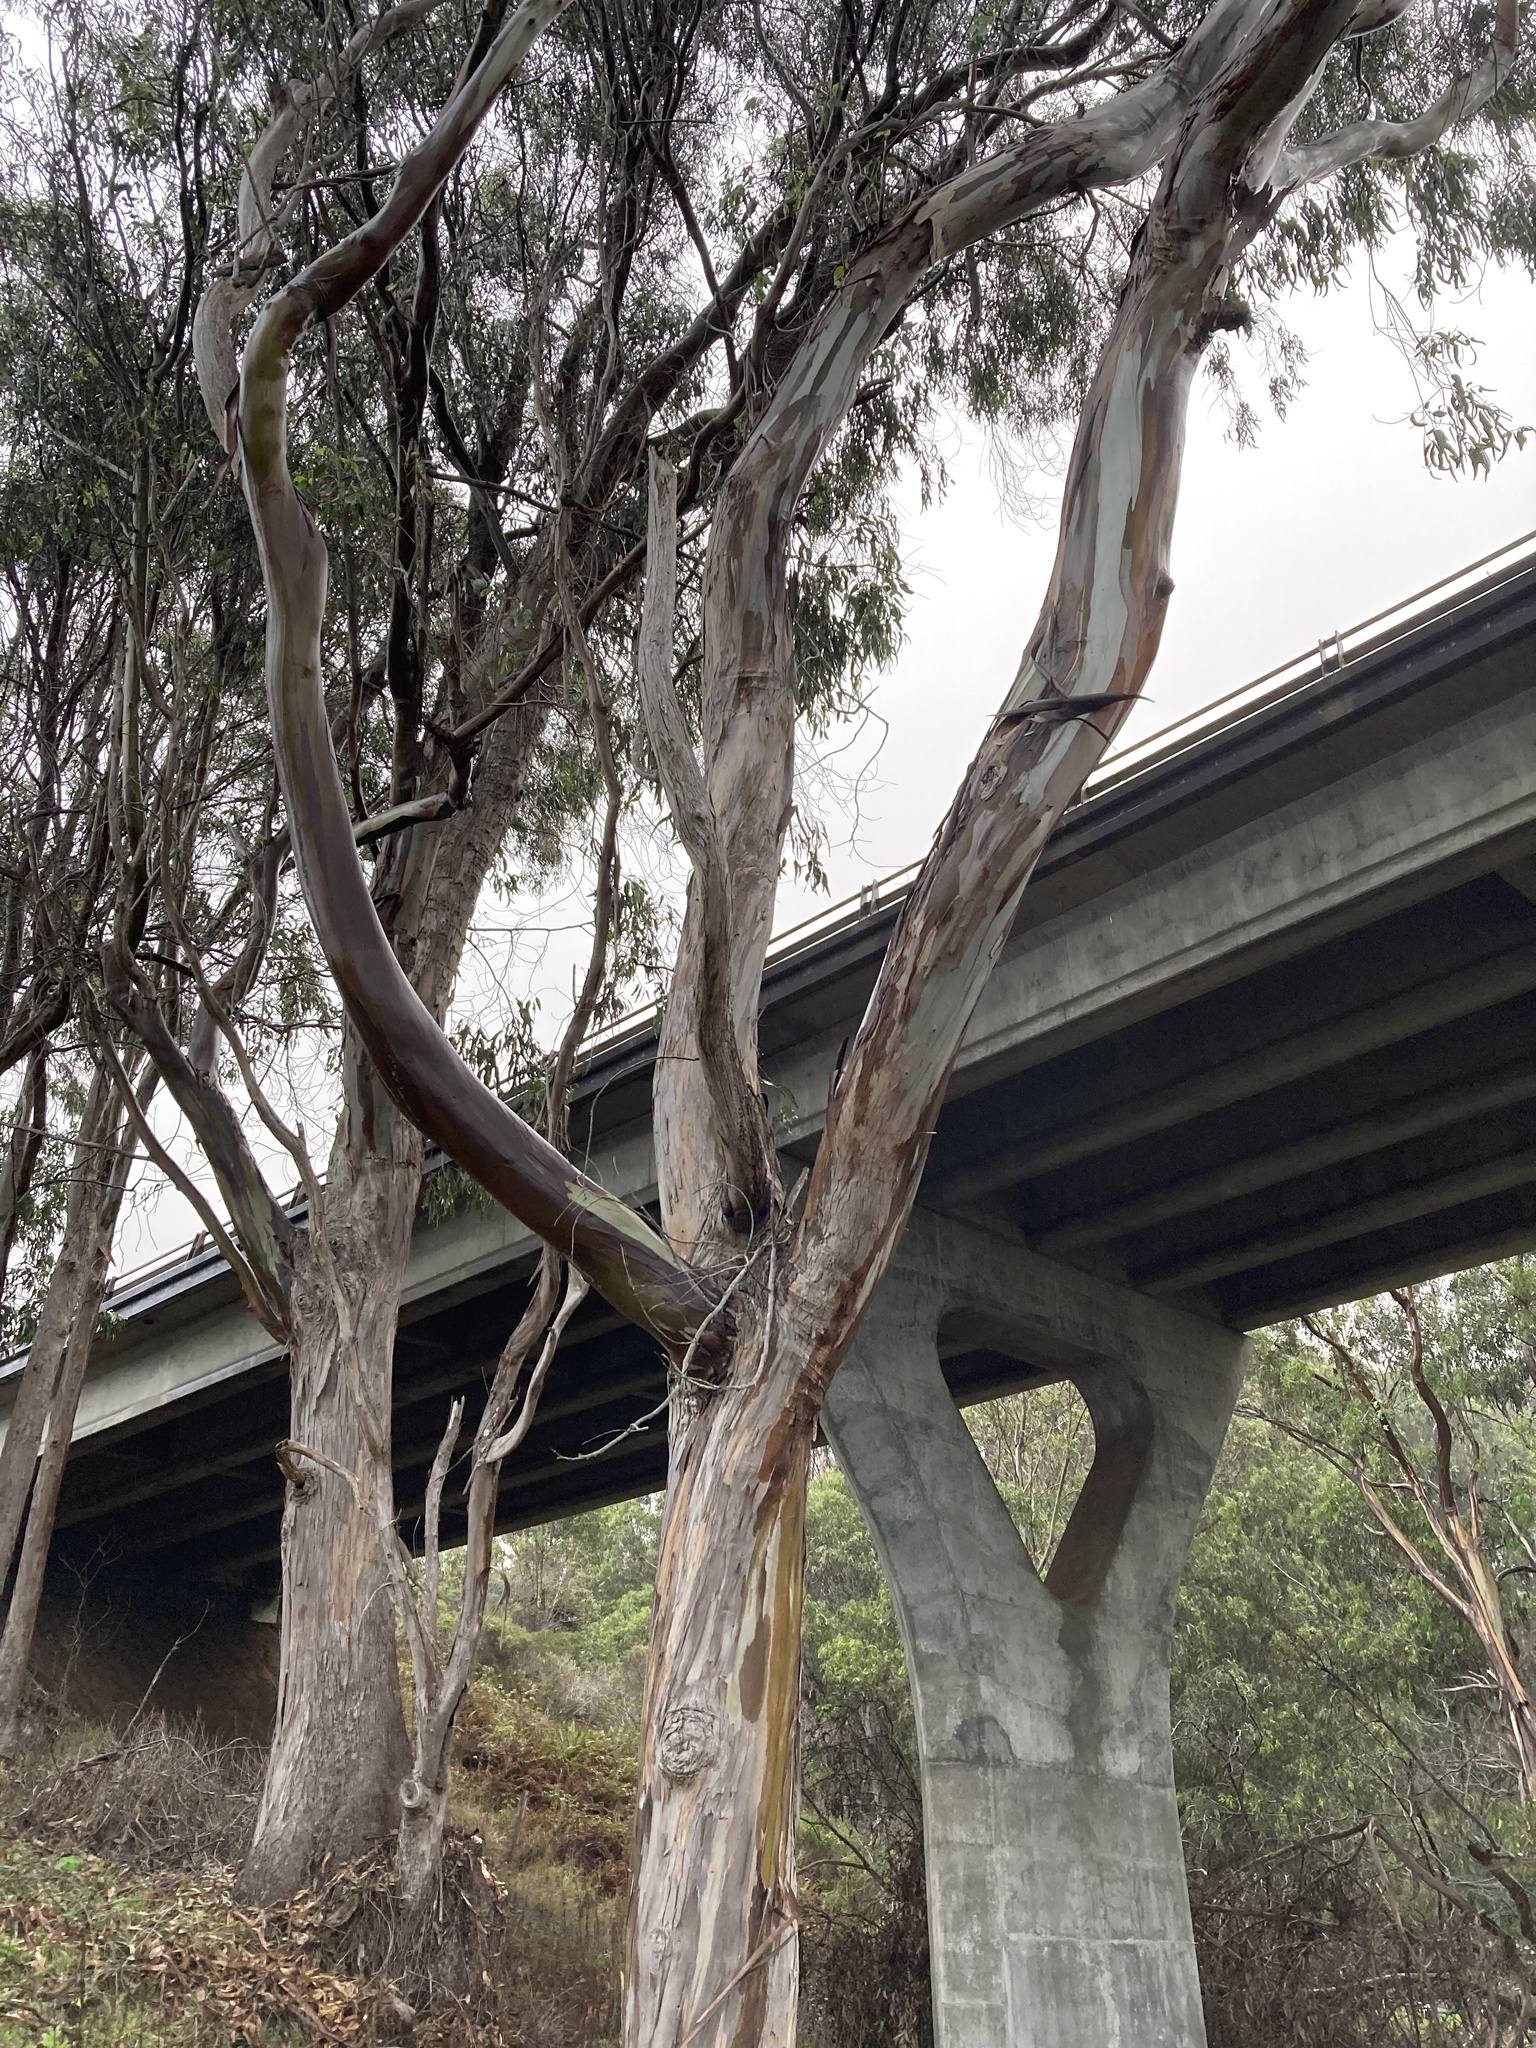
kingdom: Plantae
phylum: Tracheophyta
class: Magnoliopsida
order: Myrtales
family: Myrtaceae
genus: Eucalyptus
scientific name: Eucalyptus globulus
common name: Southern blue-gum
